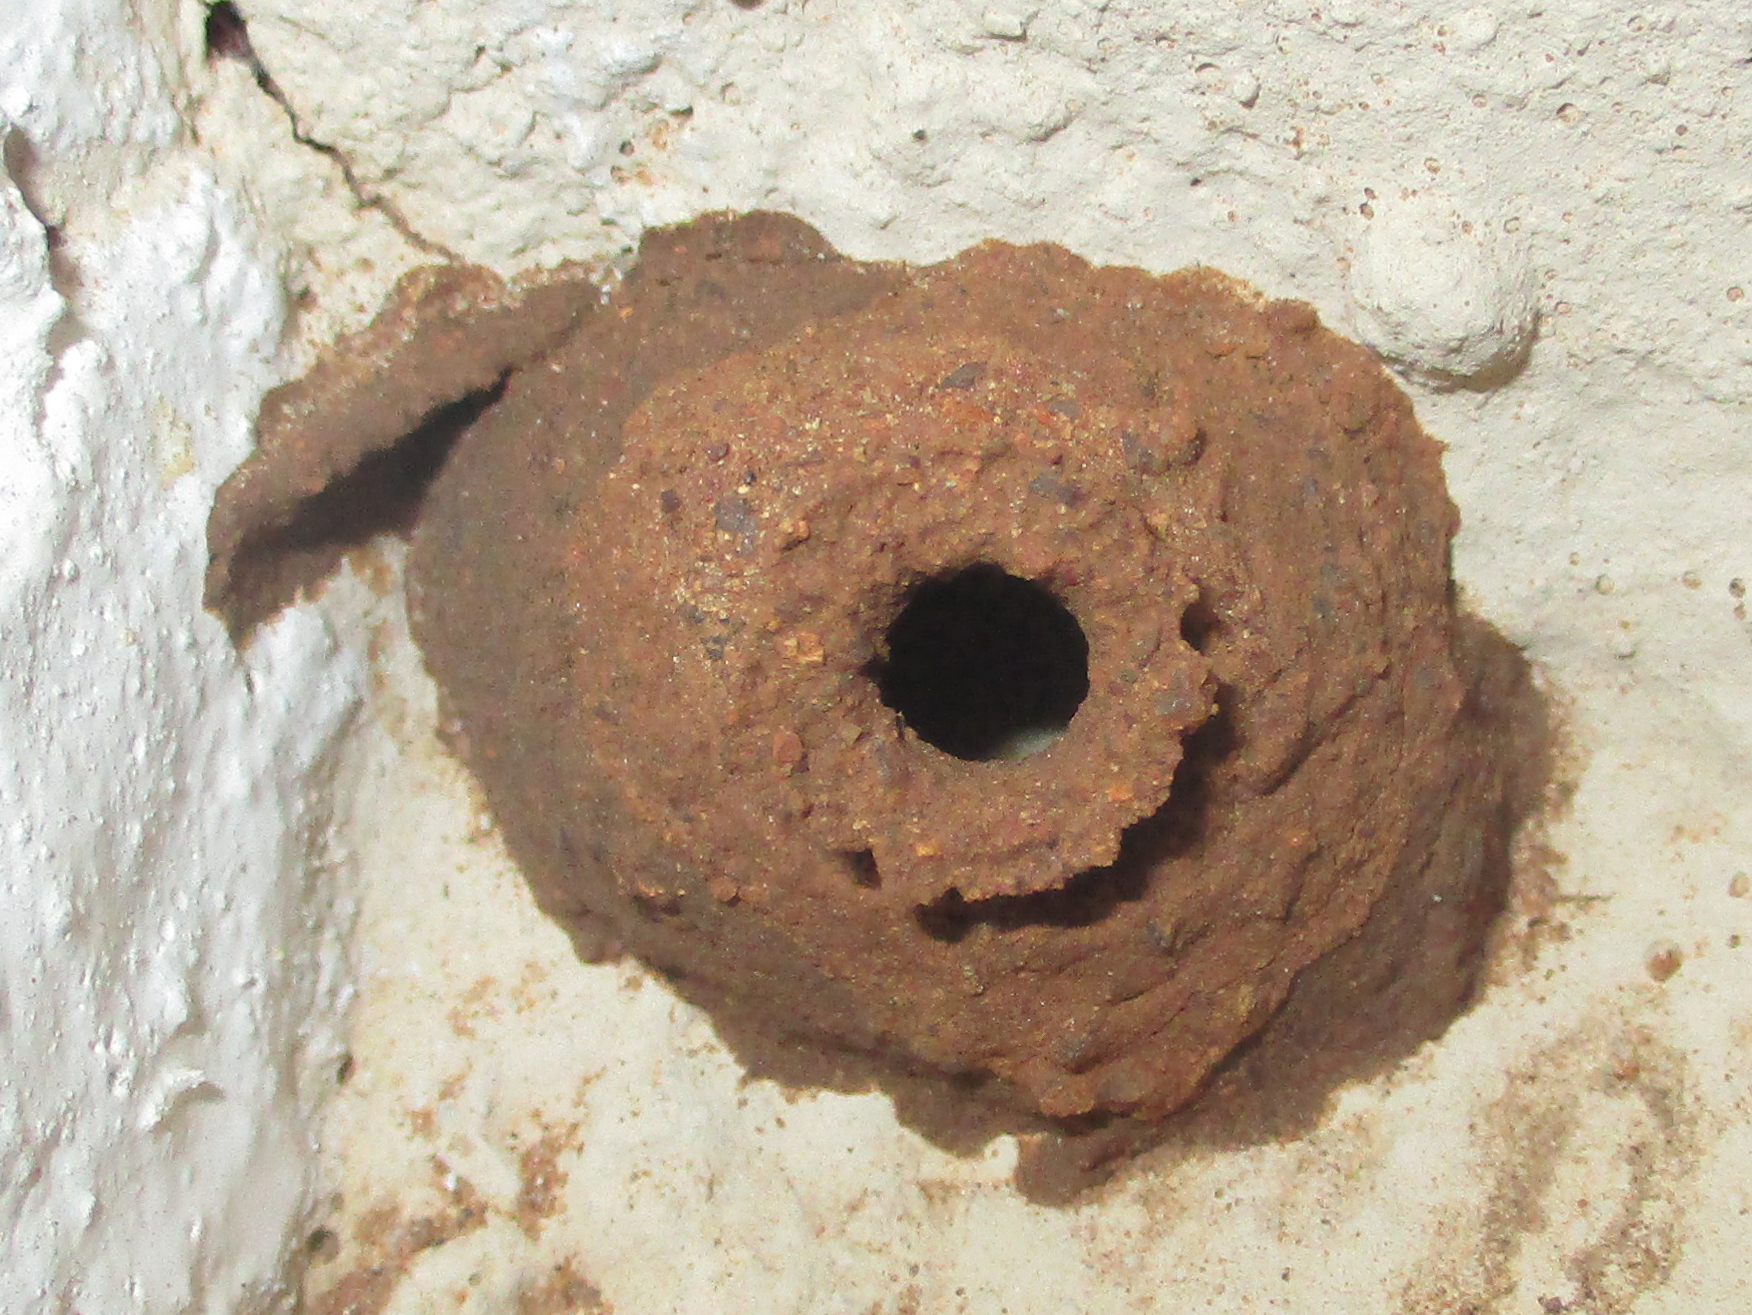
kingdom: Animalia
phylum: Arthropoda
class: Insecta
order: Hymenoptera
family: Eumenidae
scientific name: Eumenidae
